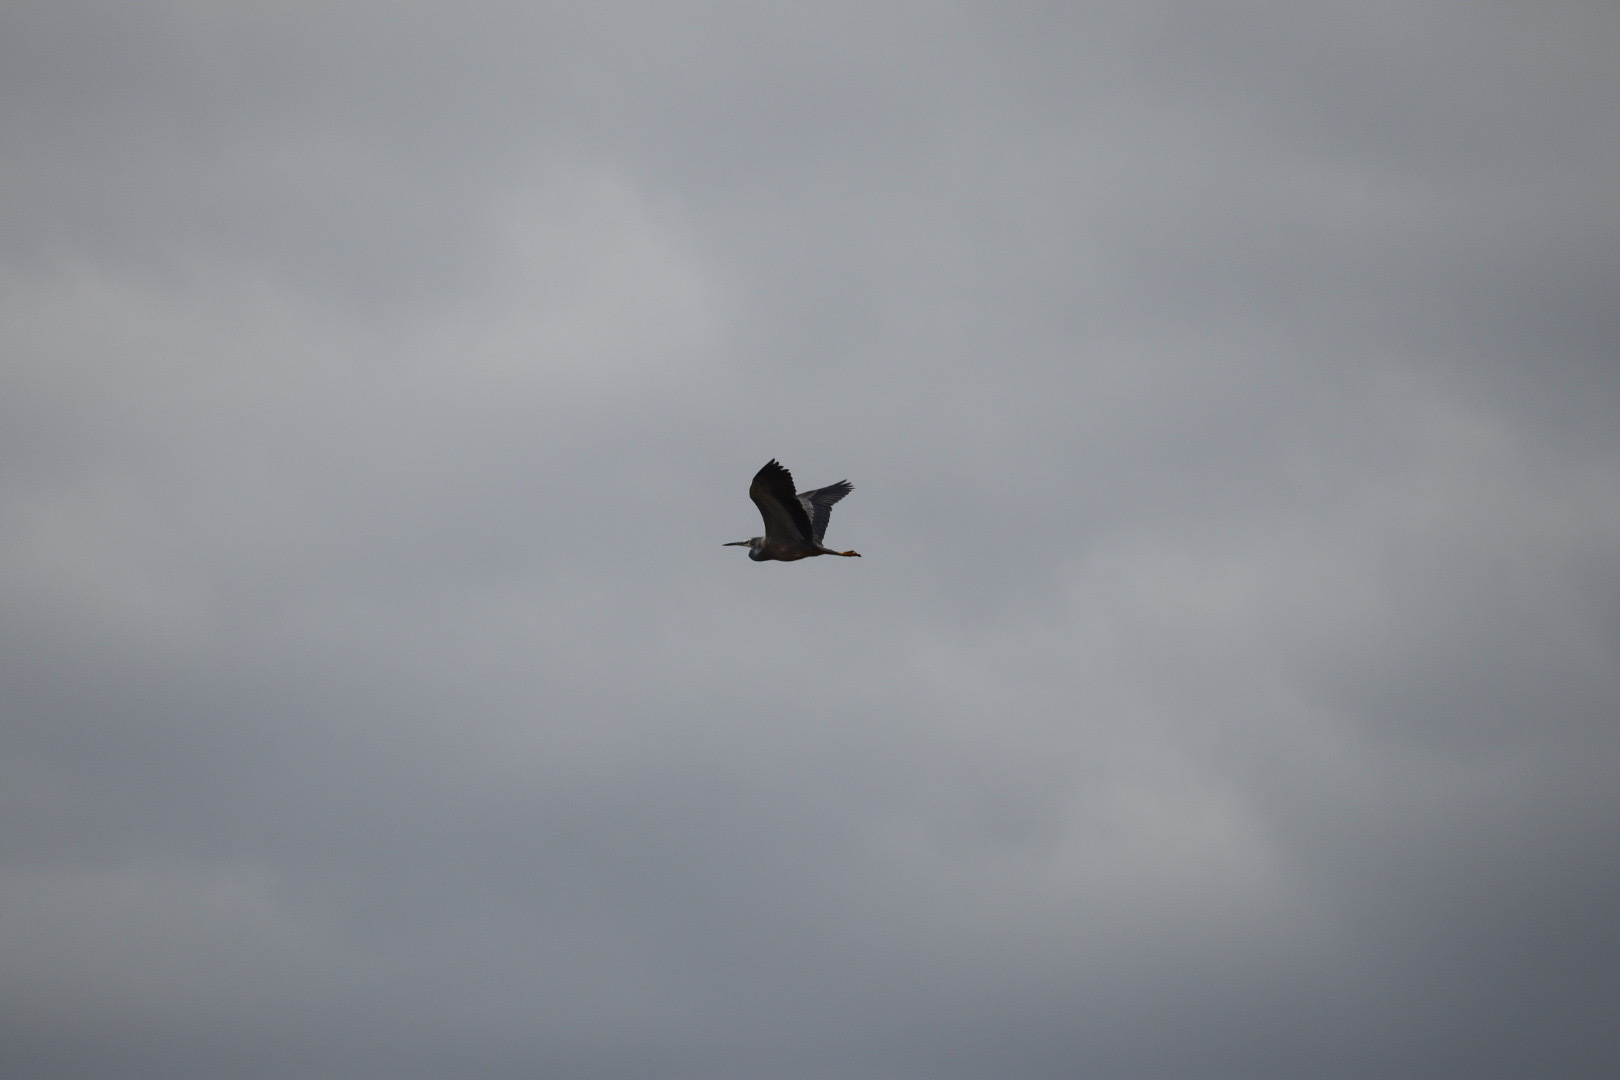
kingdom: Animalia
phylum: Chordata
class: Aves
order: Pelecaniformes
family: Ardeidae
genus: Egretta
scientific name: Egretta novaehollandiae
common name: White-faced heron
